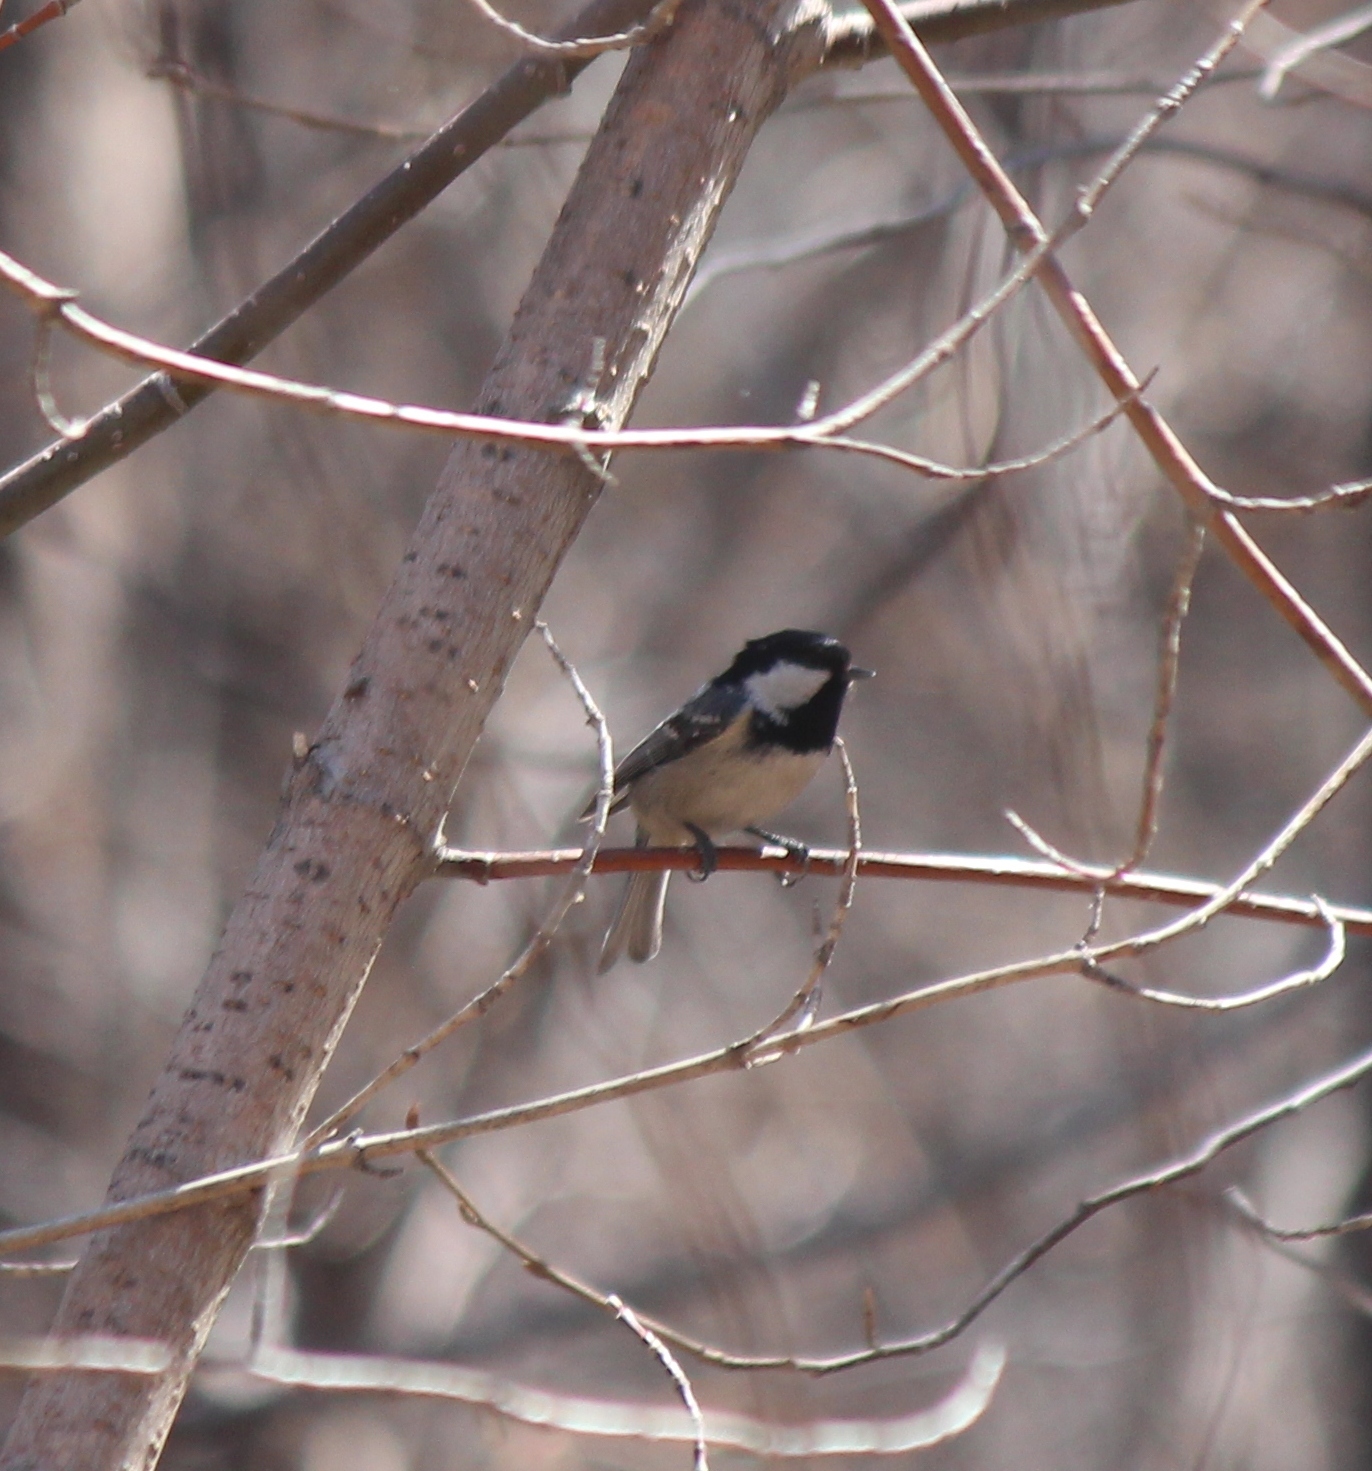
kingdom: Animalia
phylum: Chordata
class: Aves
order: Passeriformes
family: Paridae
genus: Periparus
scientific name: Periparus ater
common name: Coal tit
